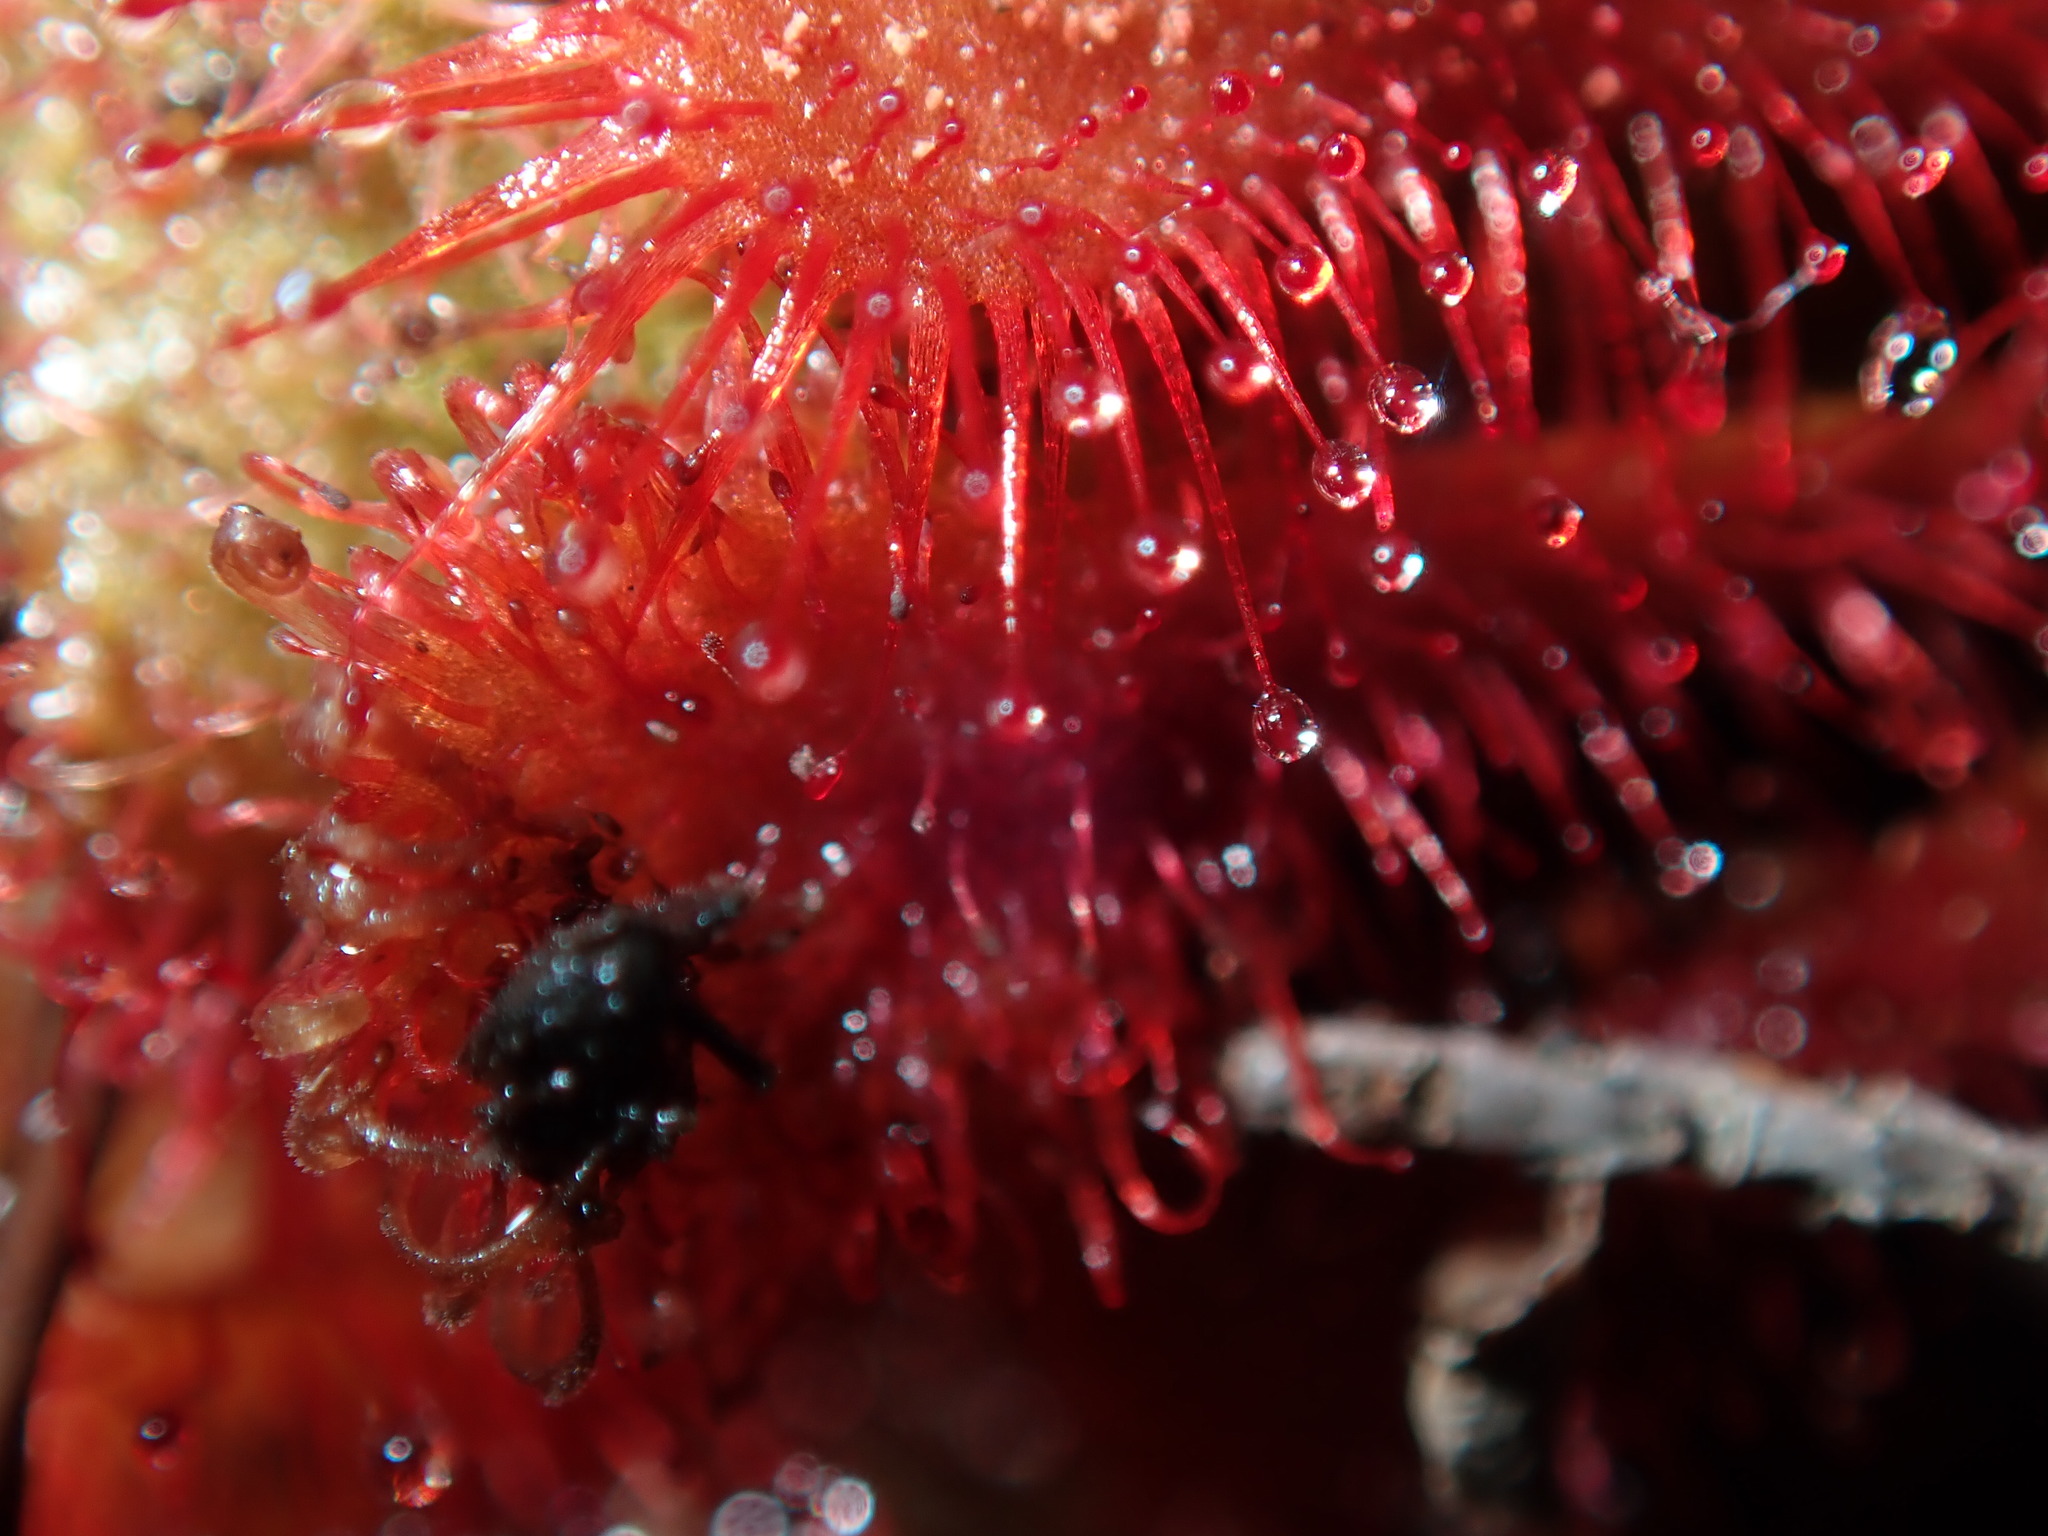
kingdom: Plantae
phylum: Tracheophyta
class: Magnoliopsida
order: Caryophyllales
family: Droseraceae
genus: Drosera
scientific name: Drosera spatulata
